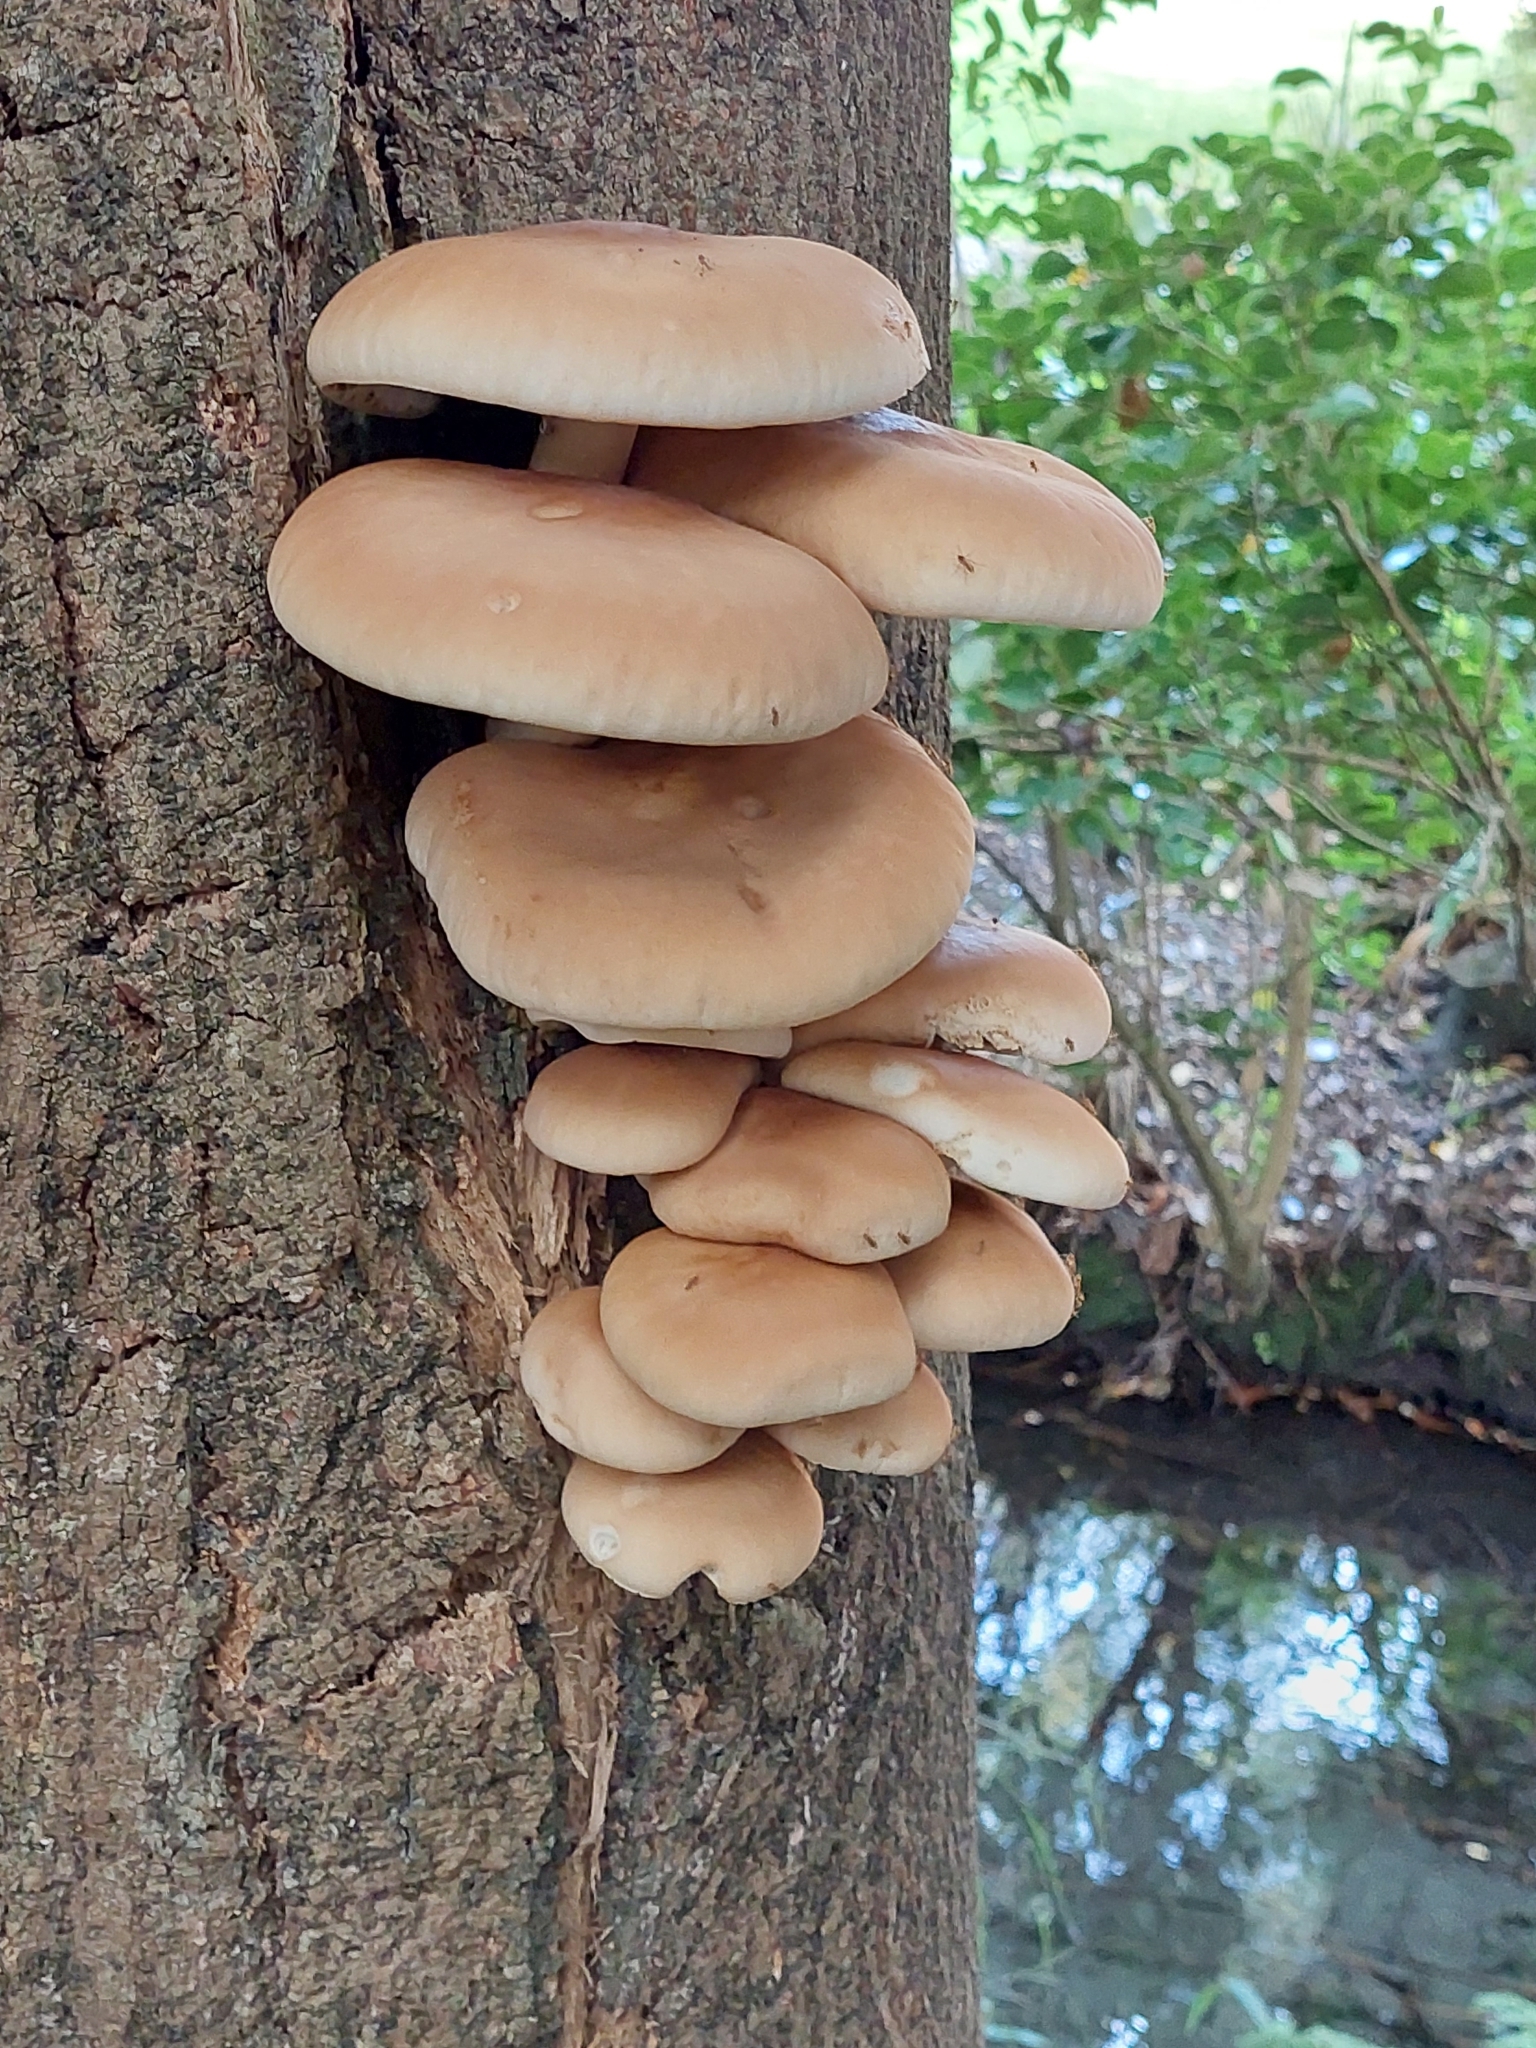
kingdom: Fungi
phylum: Basidiomycota
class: Agaricomycetes
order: Agaricales
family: Tubariaceae
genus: Cyclocybe
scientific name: Cyclocybe parasitica
